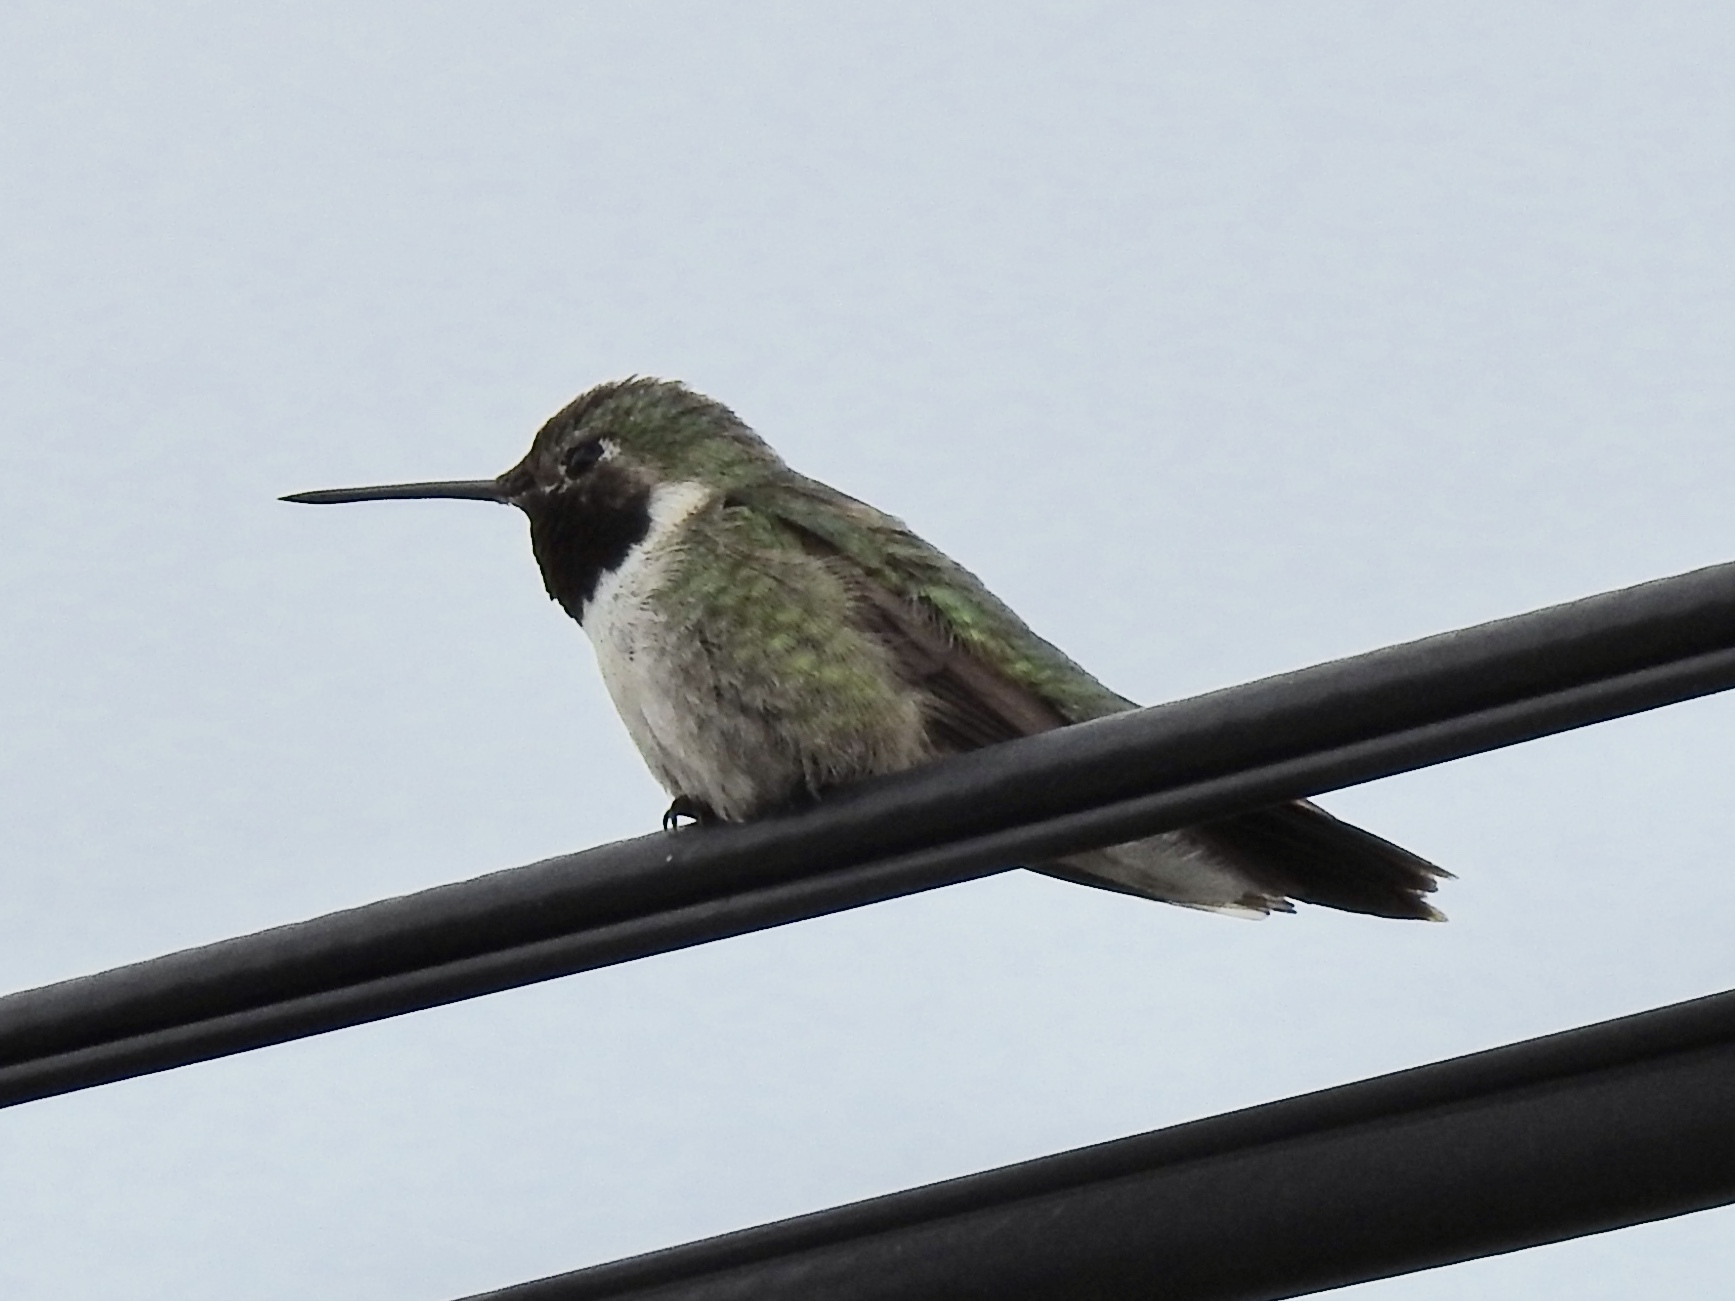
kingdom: Animalia
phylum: Chordata
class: Aves
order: Apodiformes
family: Trochilidae
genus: Selasphorus
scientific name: Selasphorus platycercus
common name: Broad-tailed hummingbird
